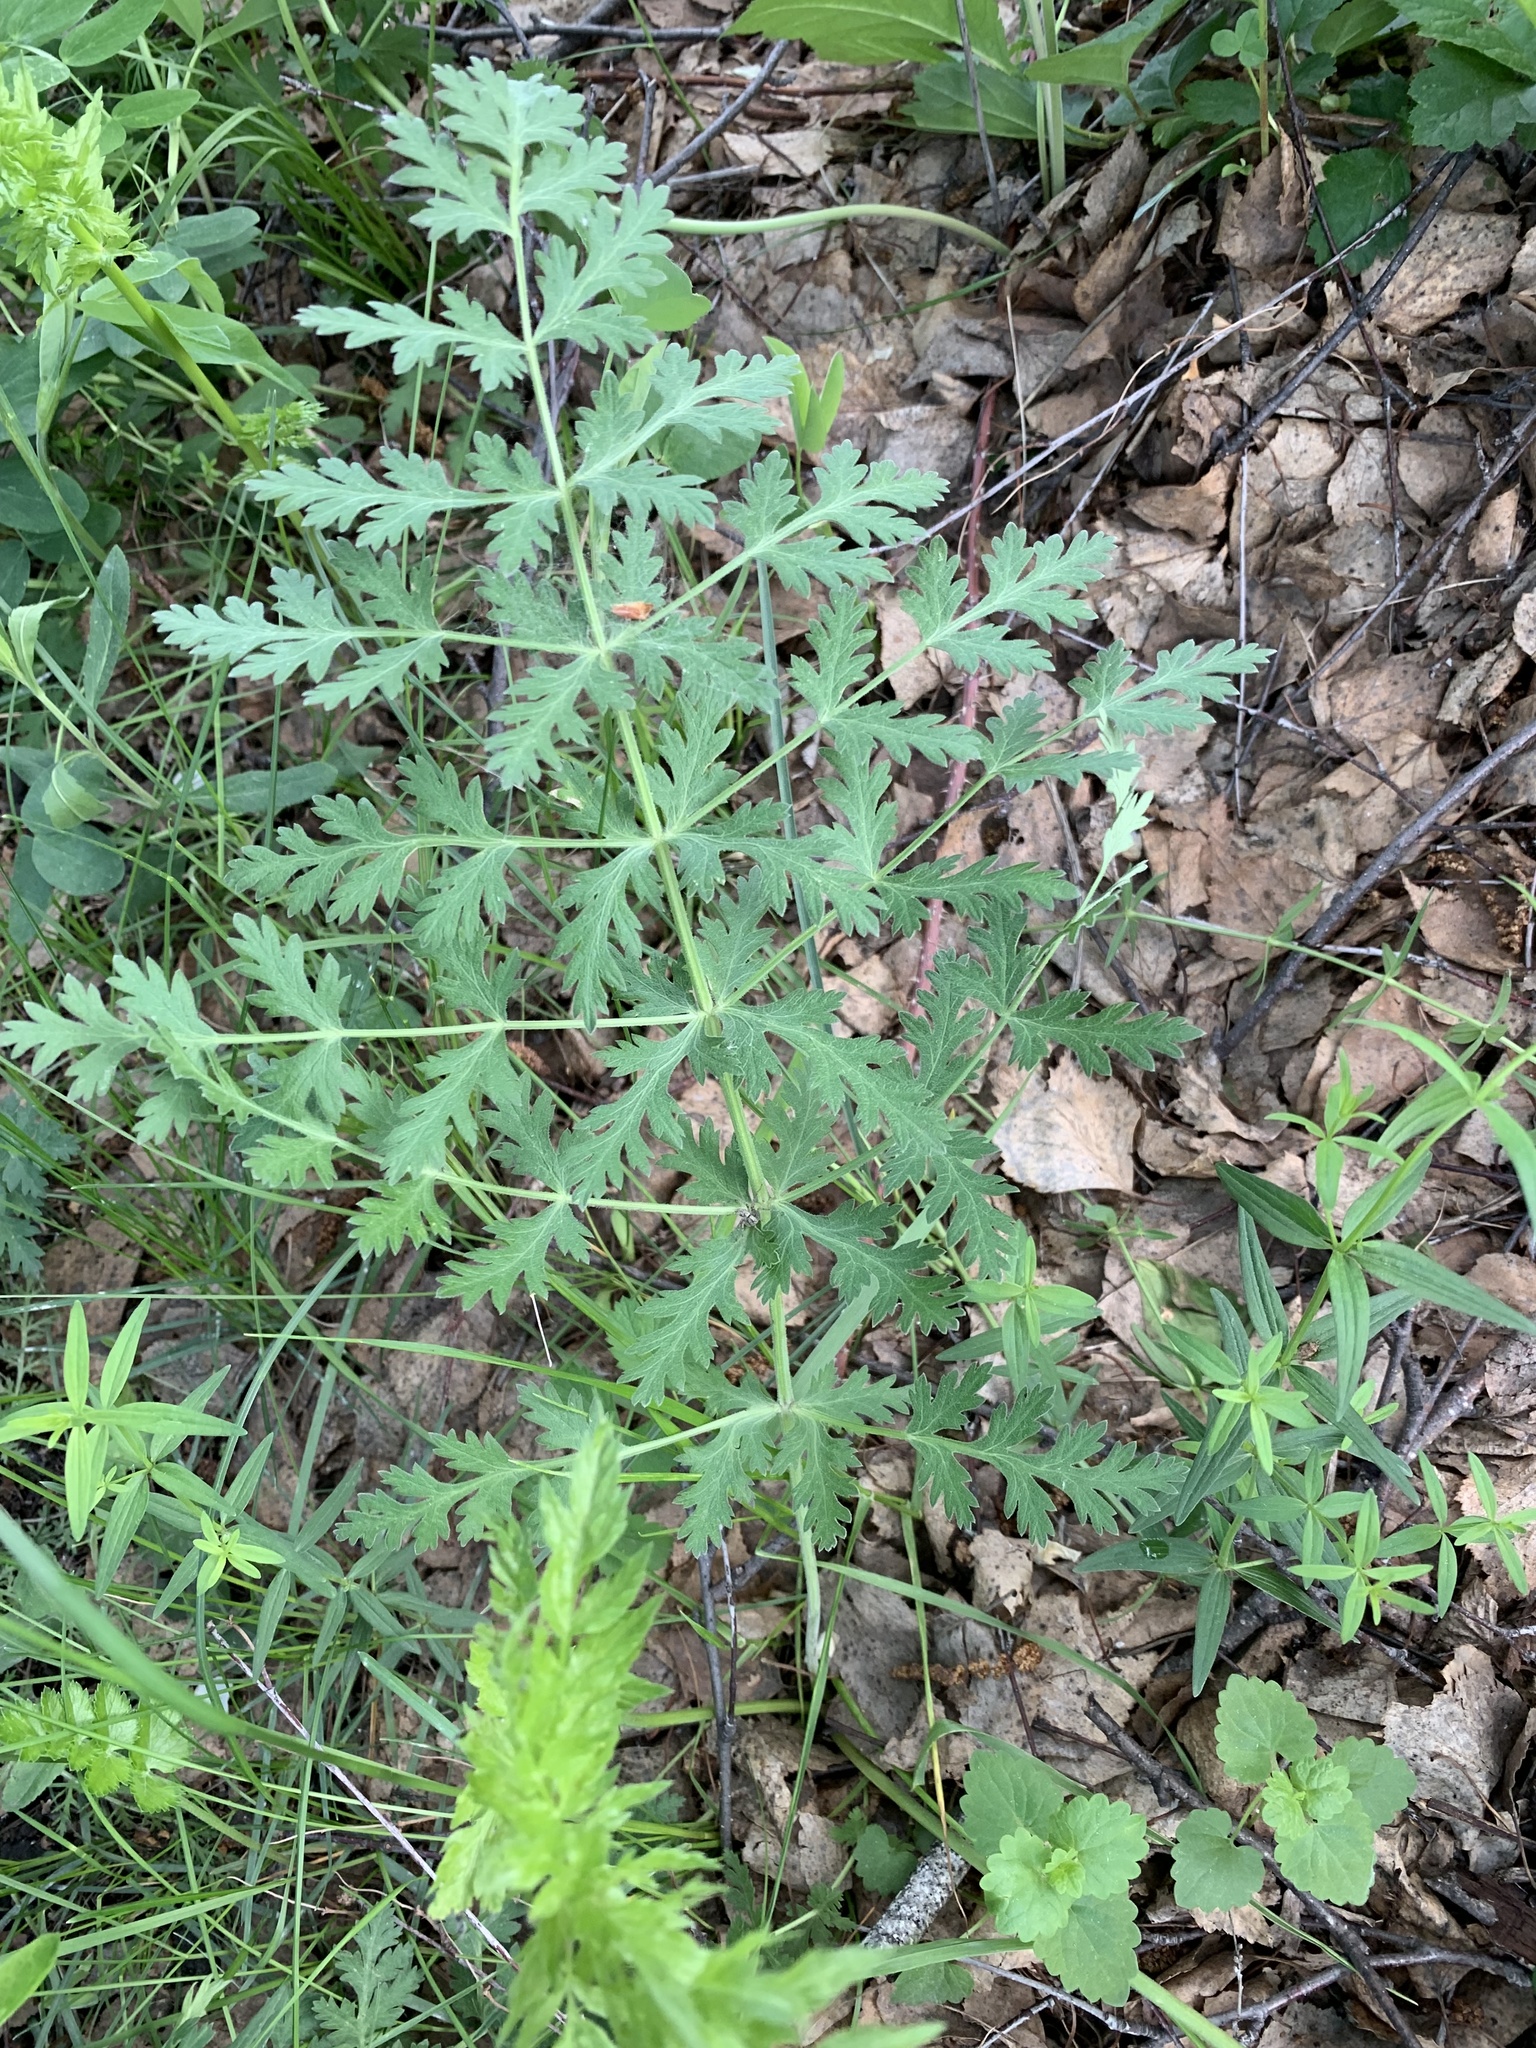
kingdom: Plantae
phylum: Tracheophyta
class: Magnoliopsida
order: Apiales
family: Apiaceae
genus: Seseli
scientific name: Seseli libanotis
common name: Mooncarrot
